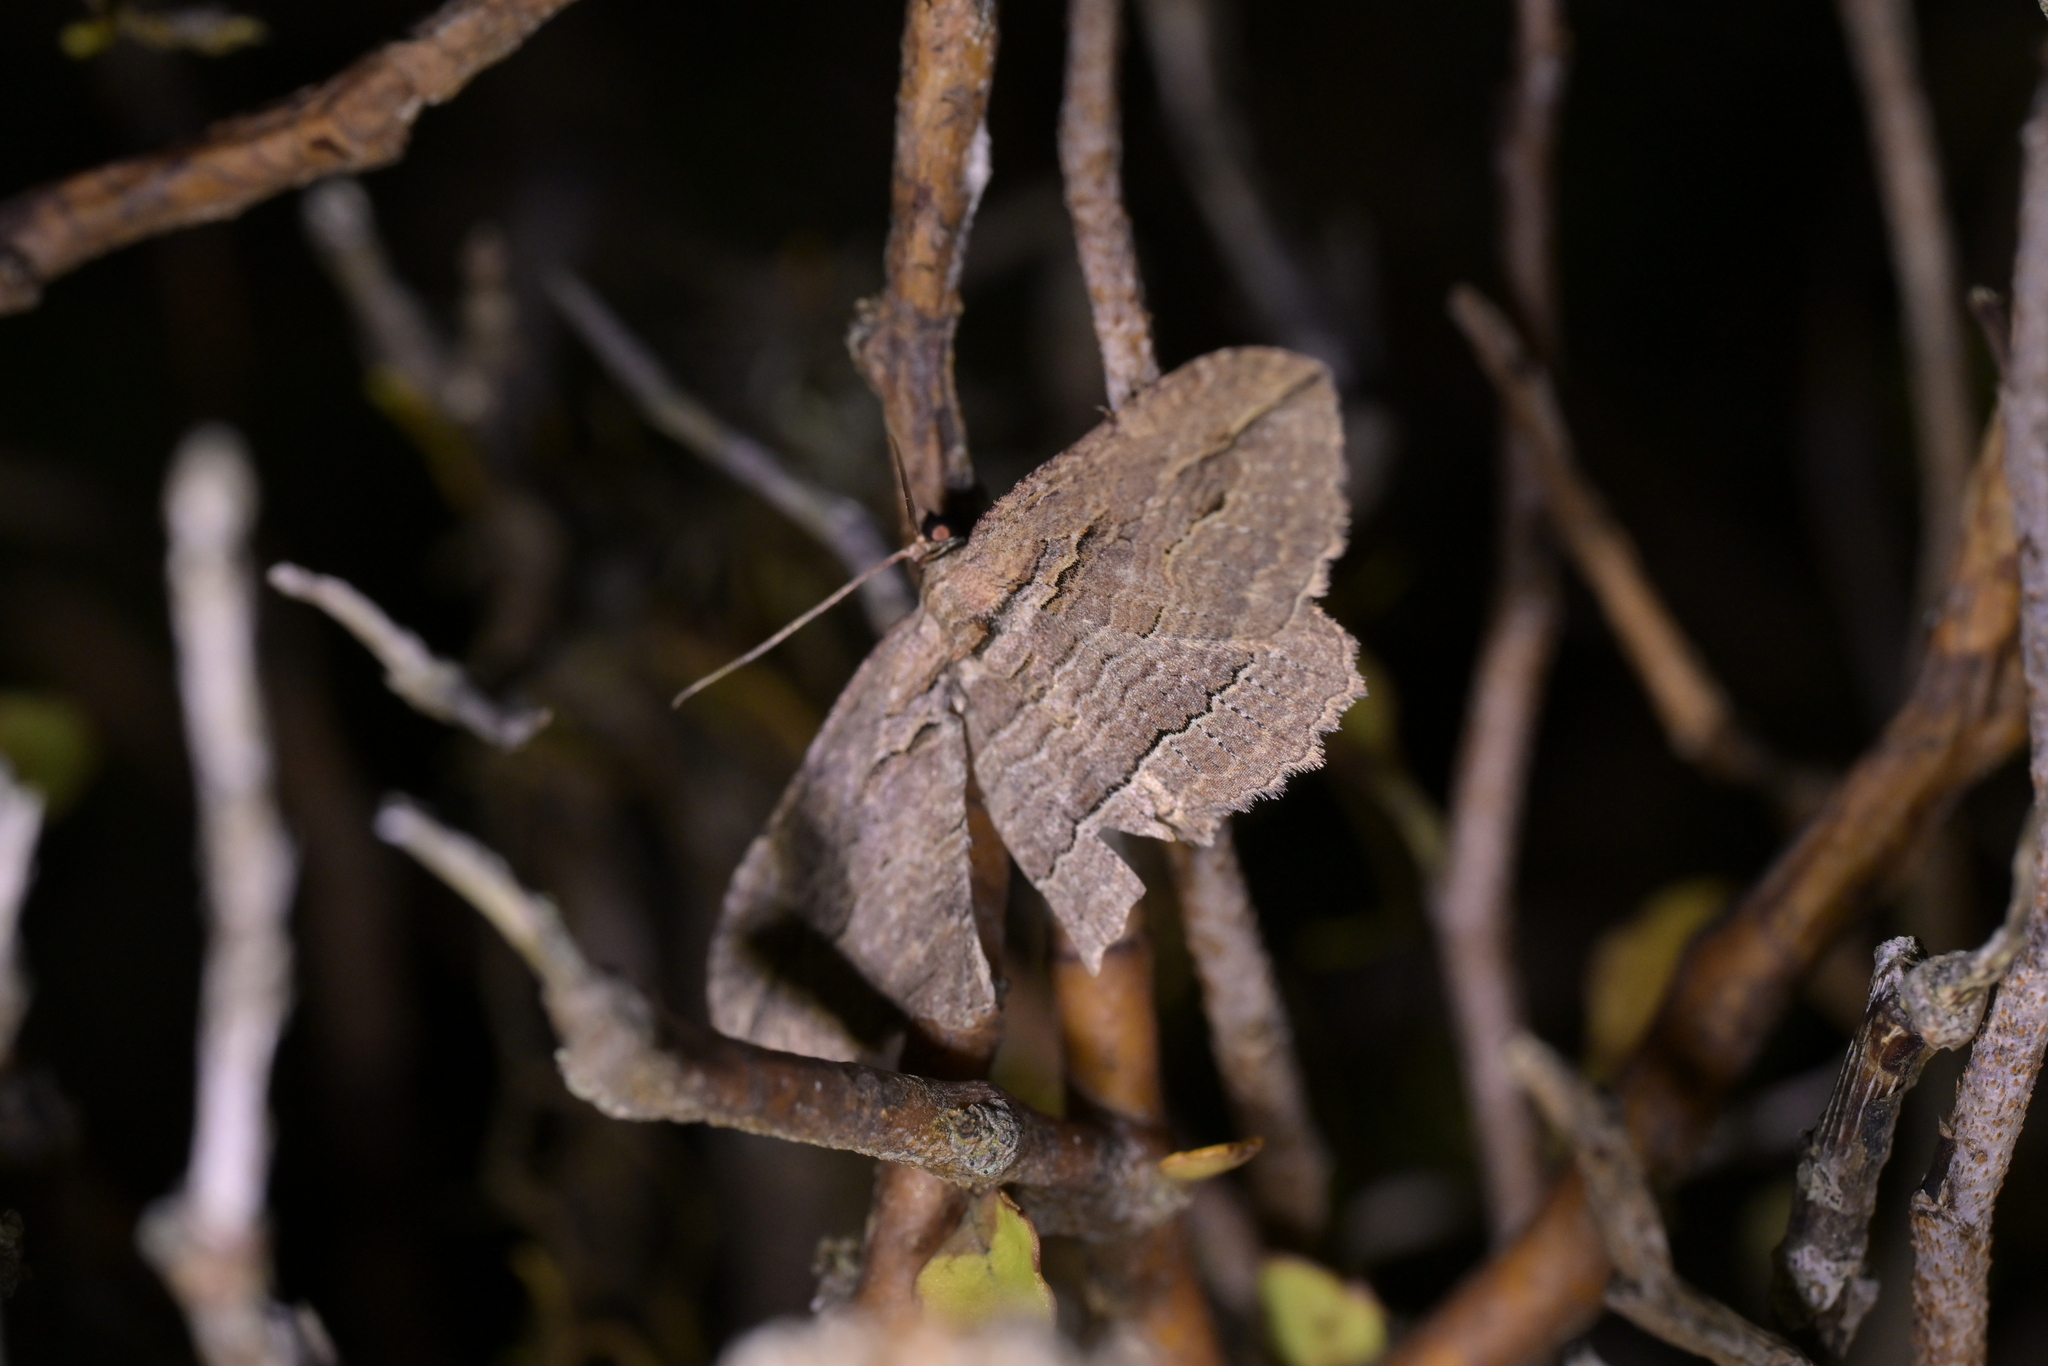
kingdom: Animalia
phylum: Arthropoda
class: Insecta
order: Lepidoptera
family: Geometridae
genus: Austrocidaria
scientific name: Austrocidaria gobiata
